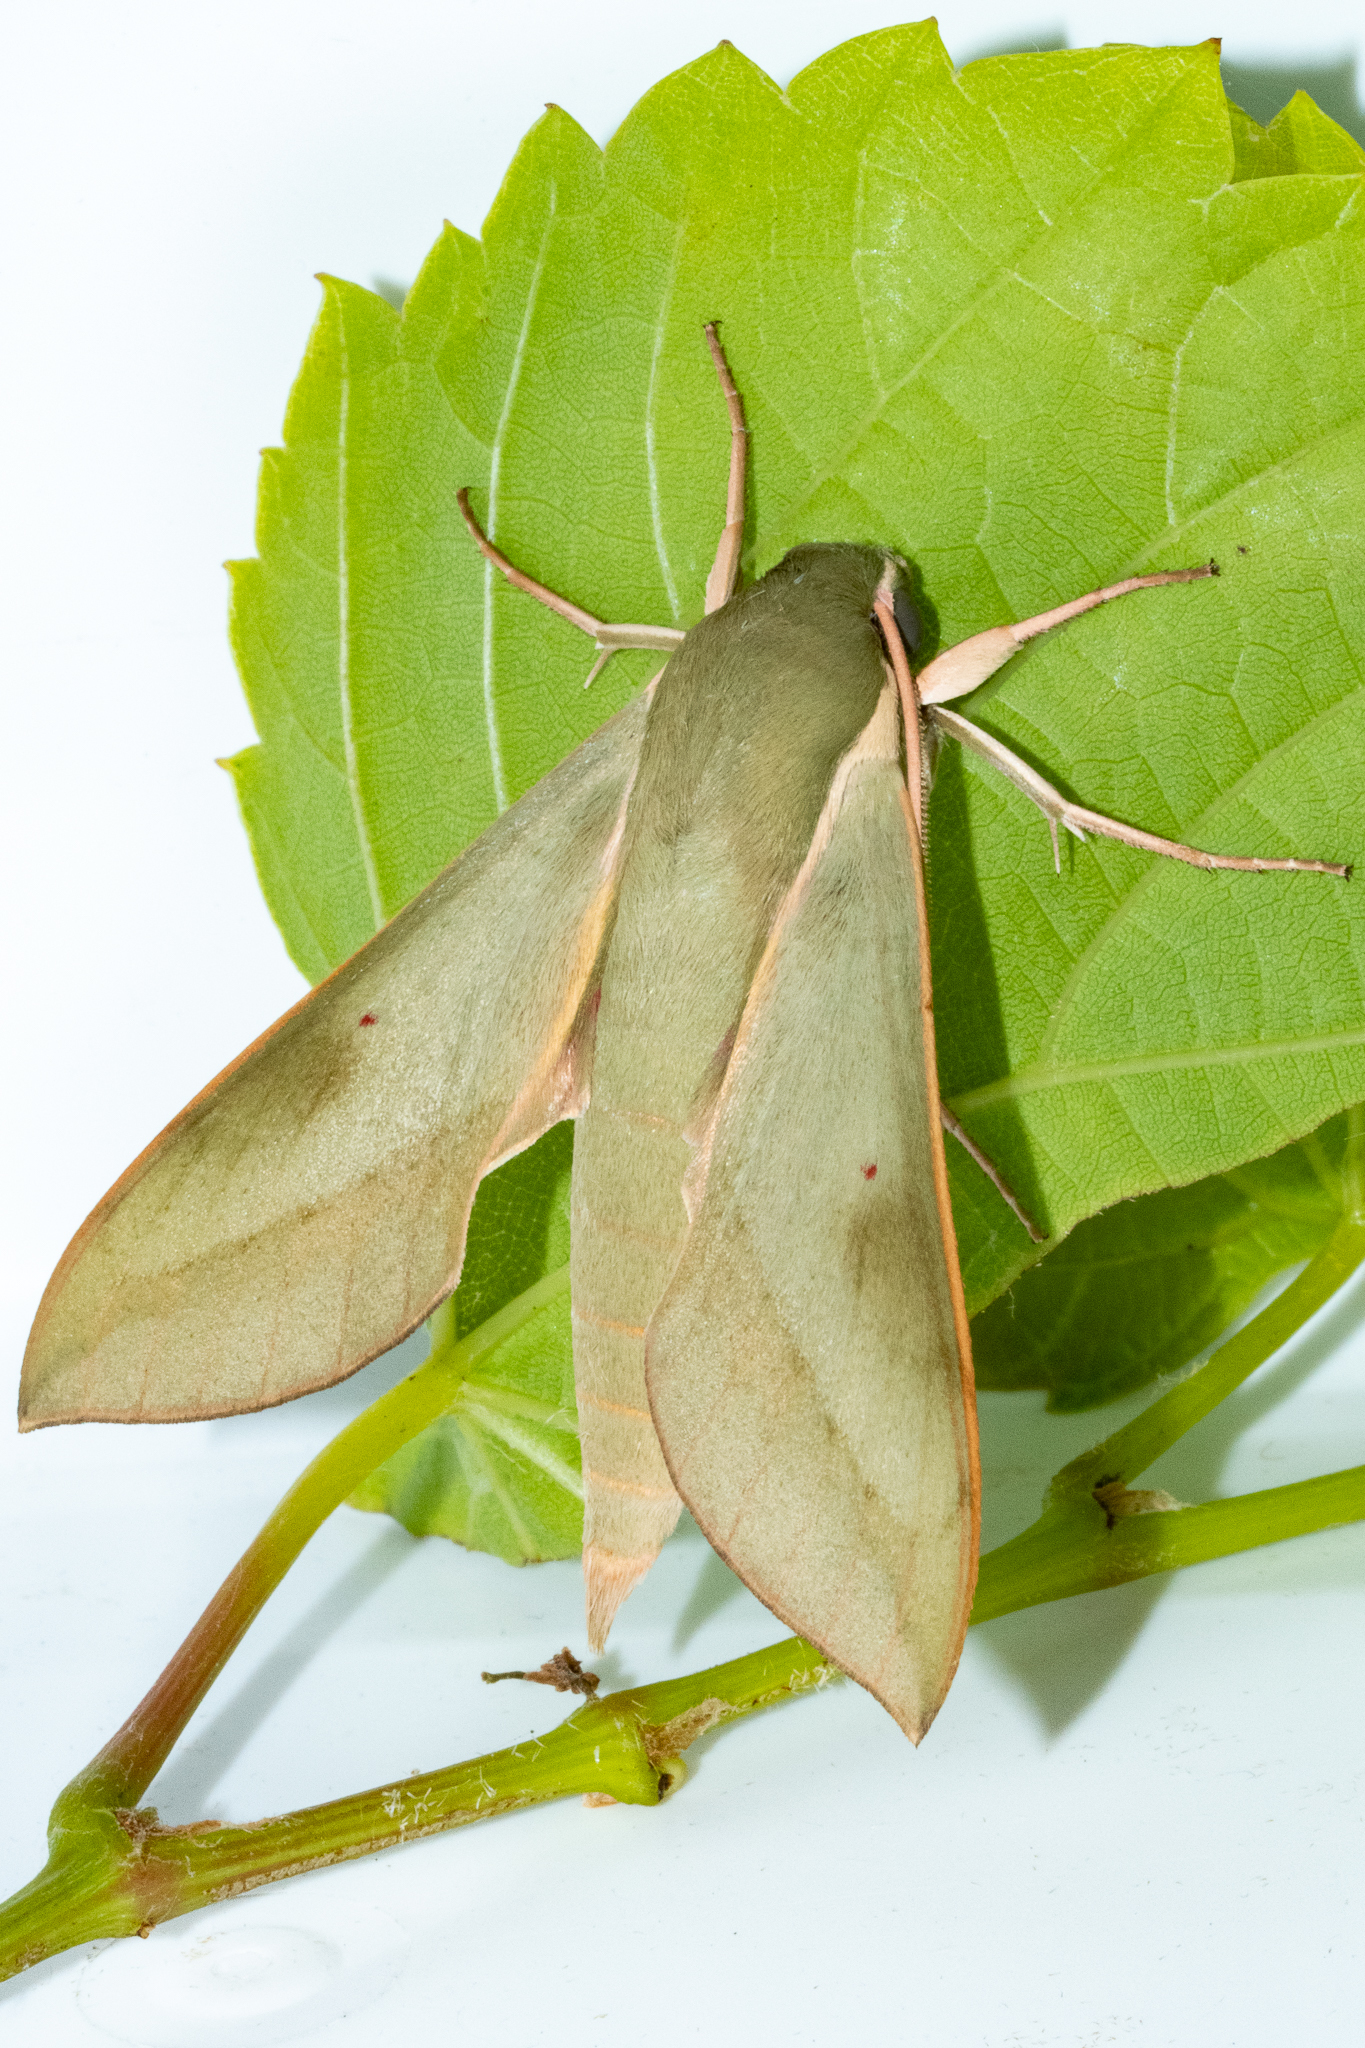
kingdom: Animalia
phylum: Arthropoda
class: Insecta
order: Lepidoptera
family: Sphingidae
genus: Theretra
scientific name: Theretra capensis
